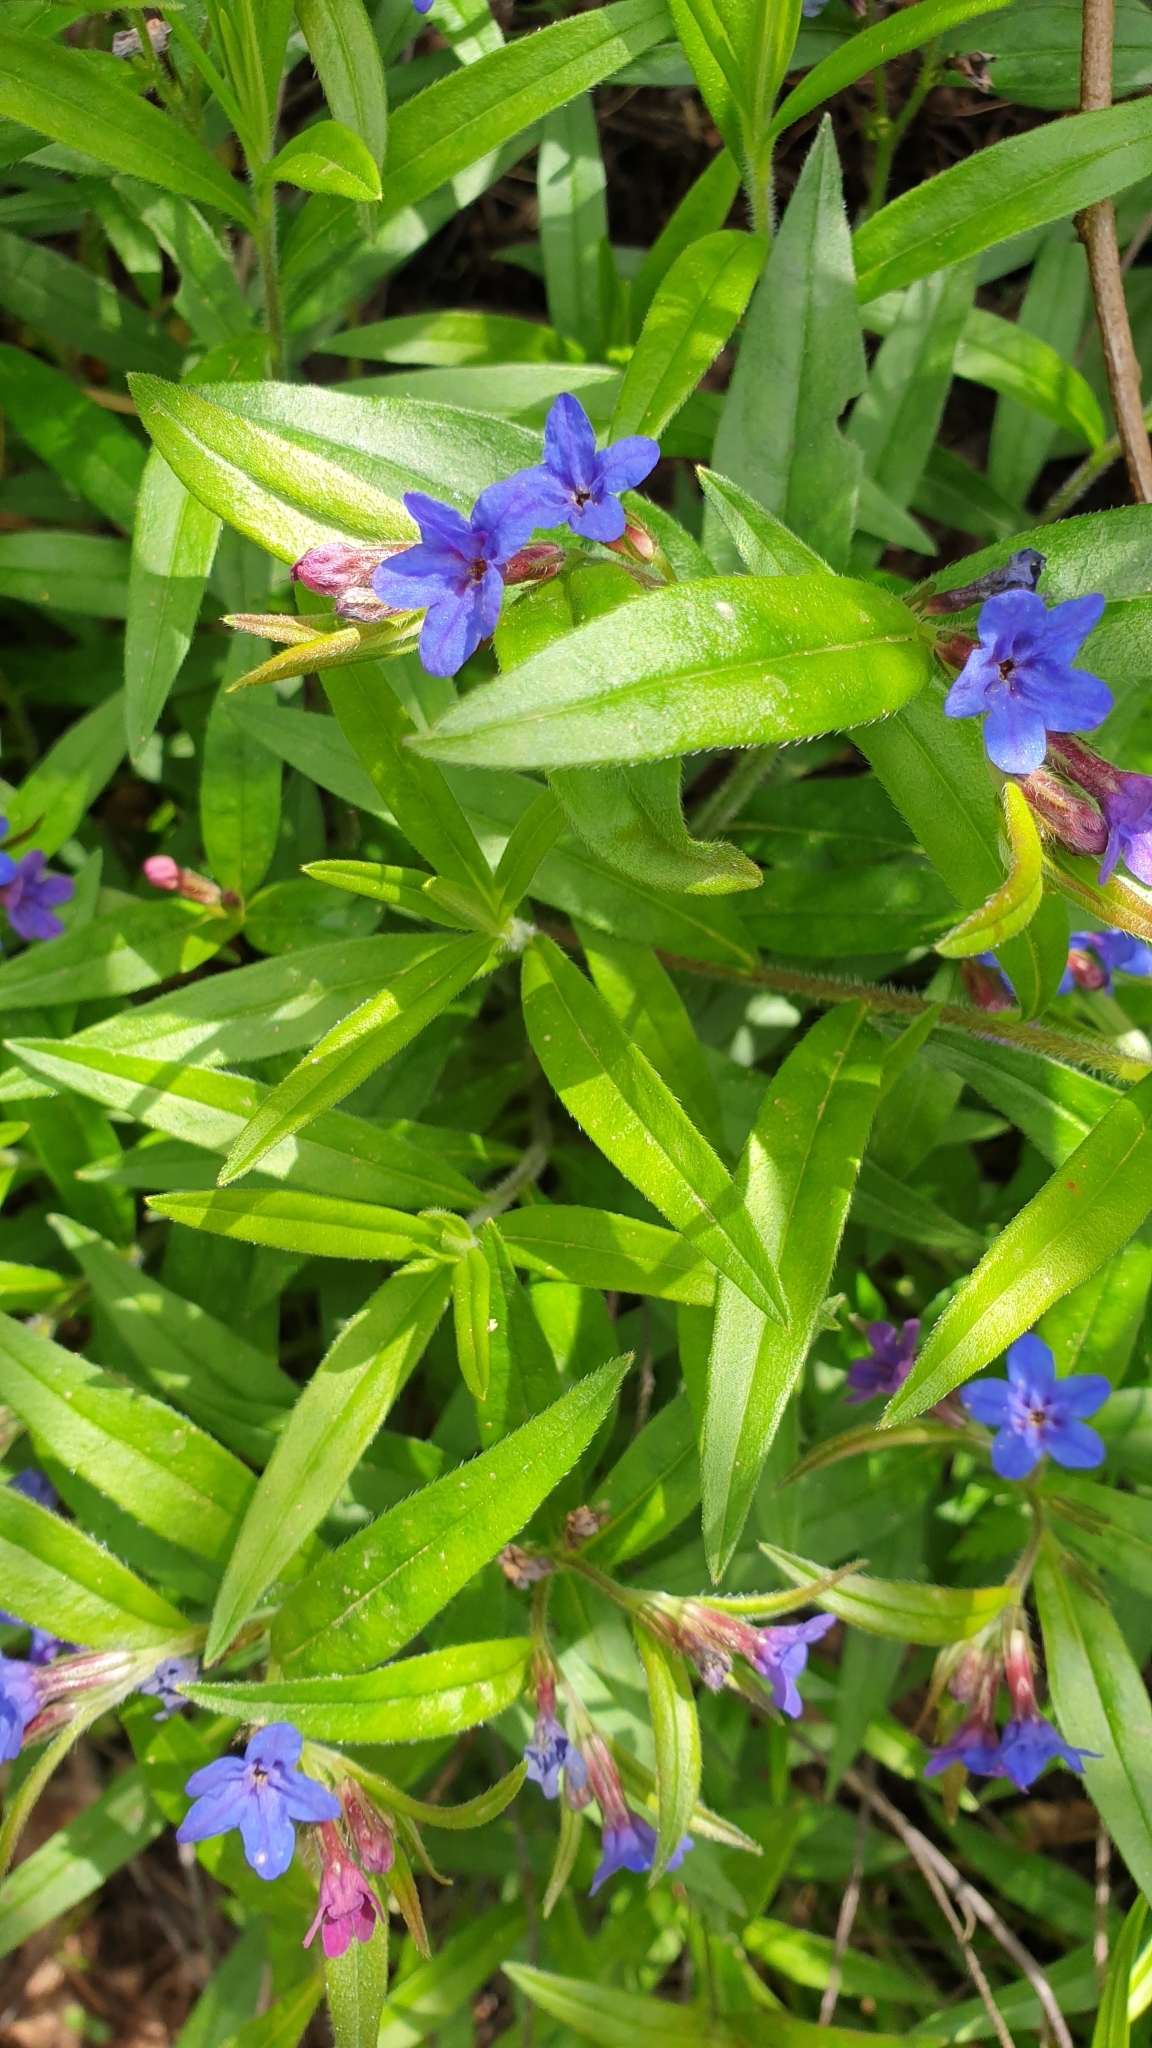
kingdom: Plantae
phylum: Tracheophyta
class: Magnoliopsida
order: Boraginales
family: Boraginaceae
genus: Aegonychon
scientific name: Aegonychon purpurocaeruleum
